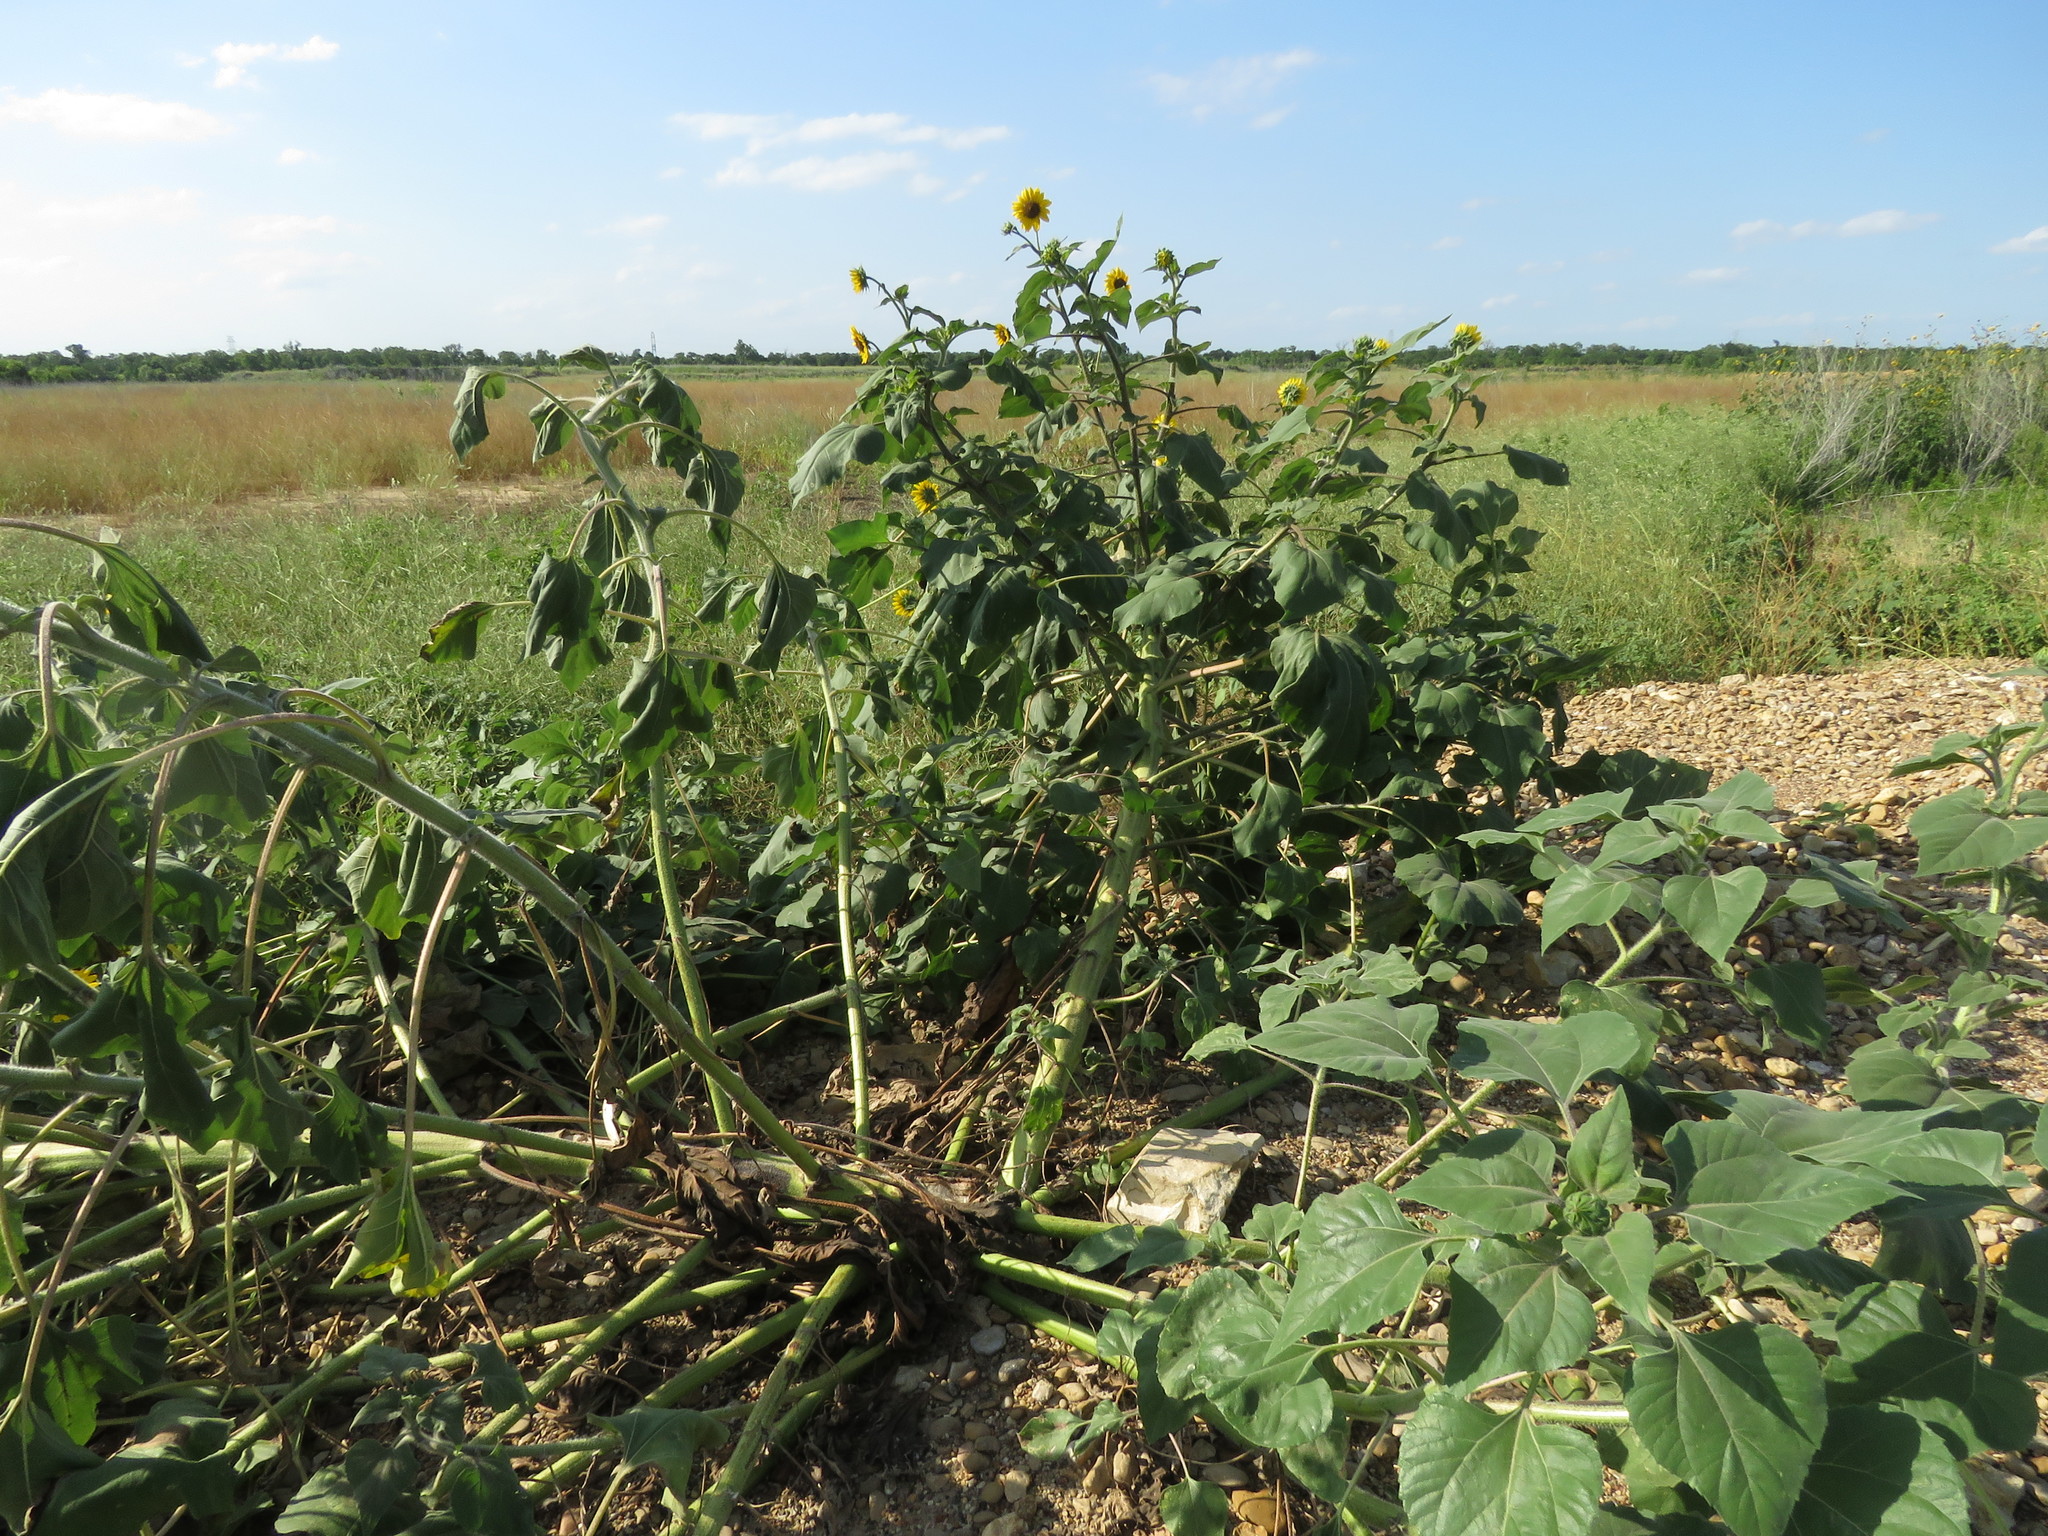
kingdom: Plantae
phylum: Tracheophyta
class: Magnoliopsida
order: Asterales
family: Asteraceae
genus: Helianthus
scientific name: Helianthus annuus
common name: Sunflower
